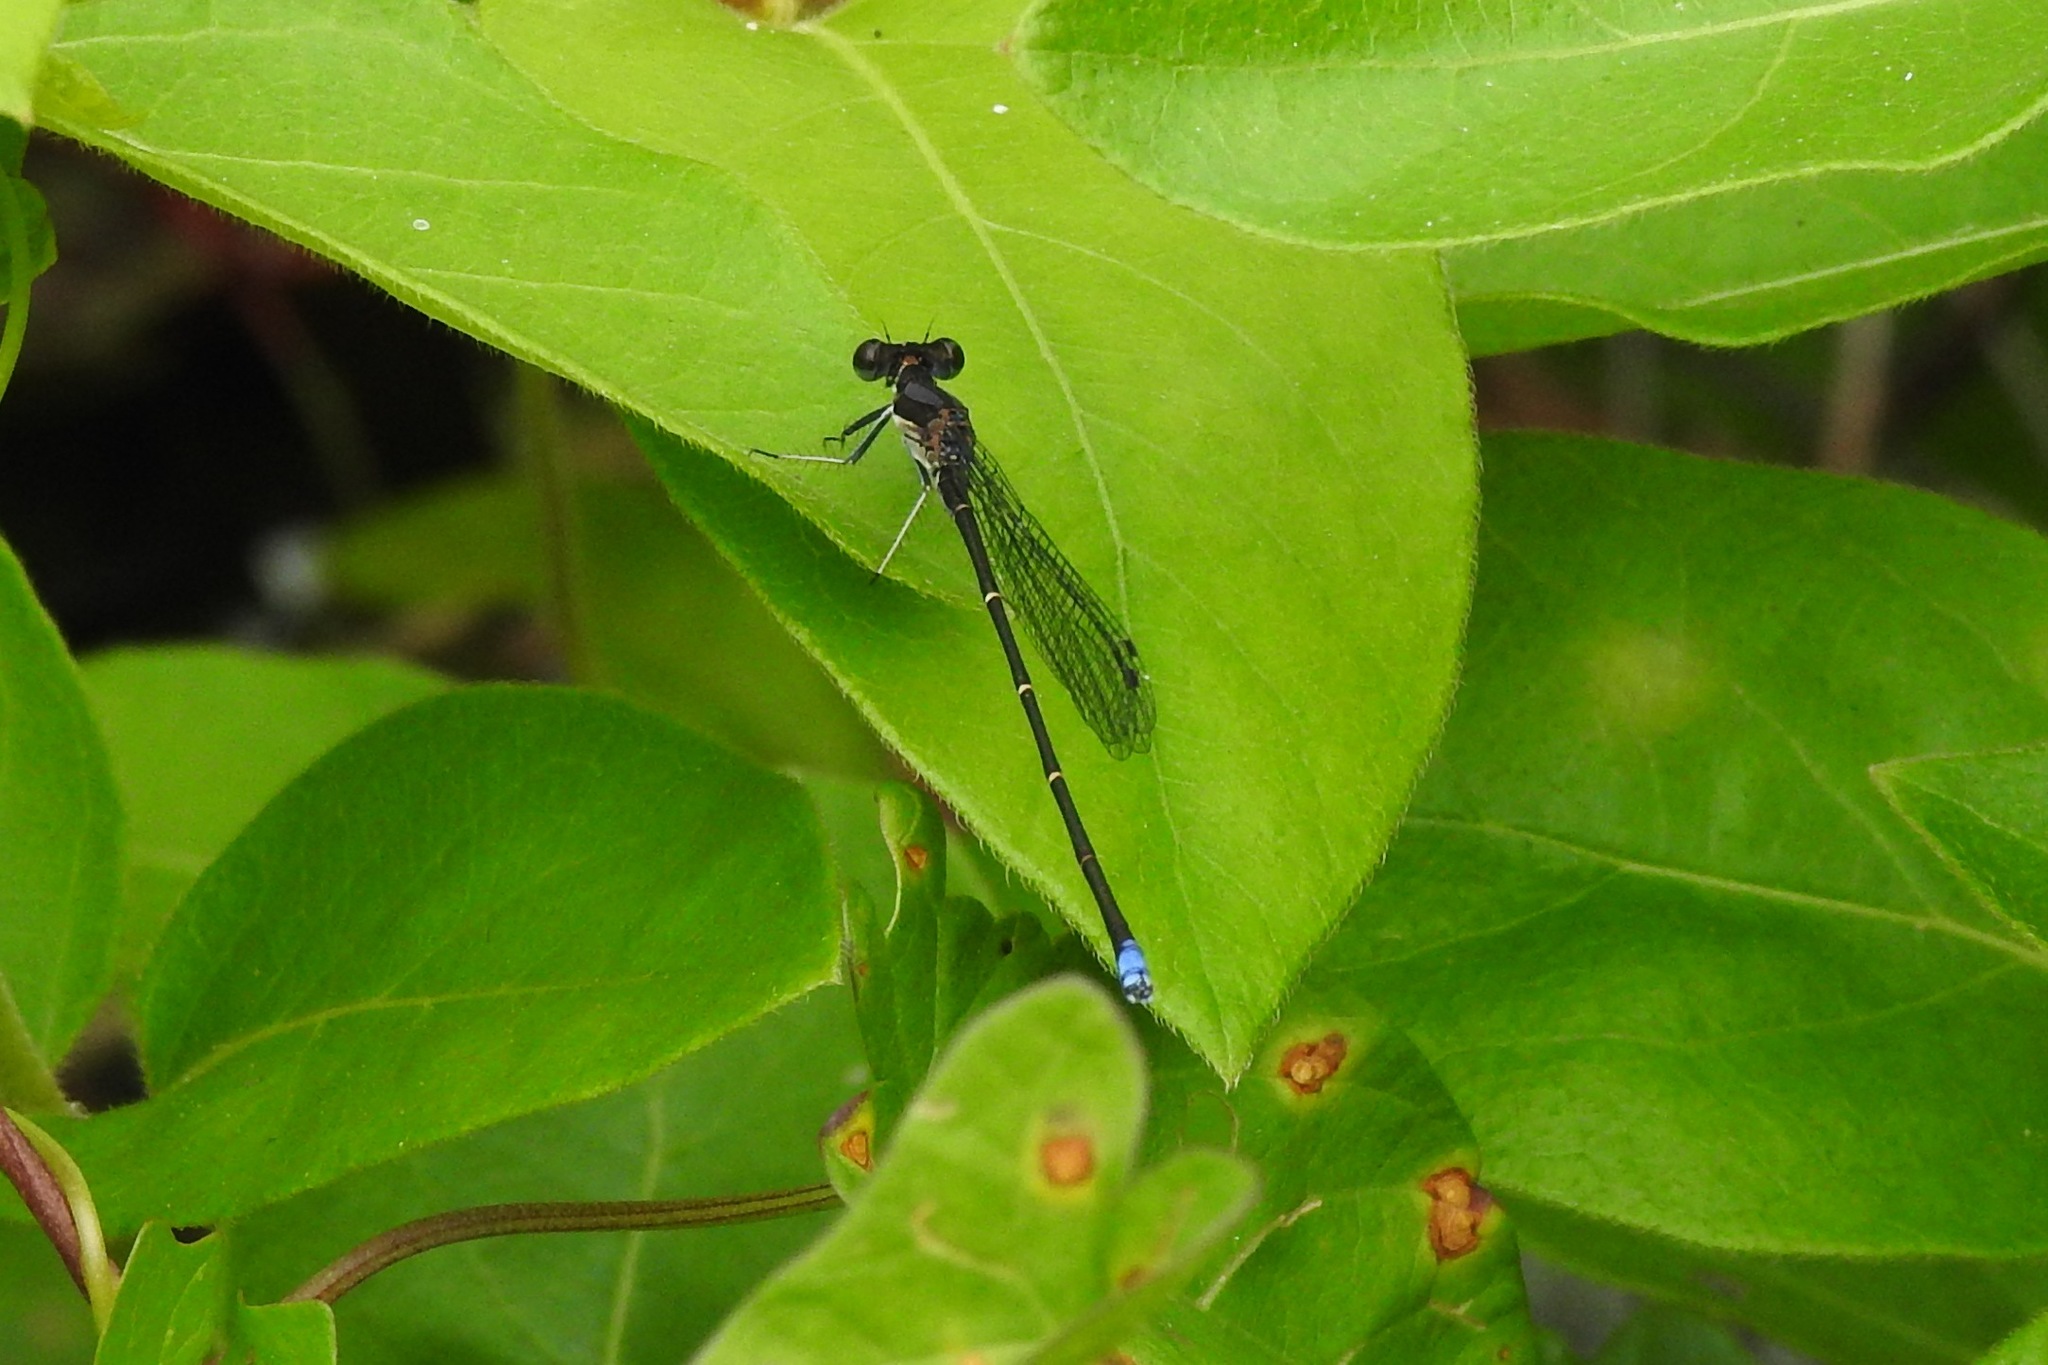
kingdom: Animalia
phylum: Arthropoda
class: Insecta
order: Odonata
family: Coenagrionidae
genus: Argia
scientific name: Argia tibialis
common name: Blue-tipped dancer
